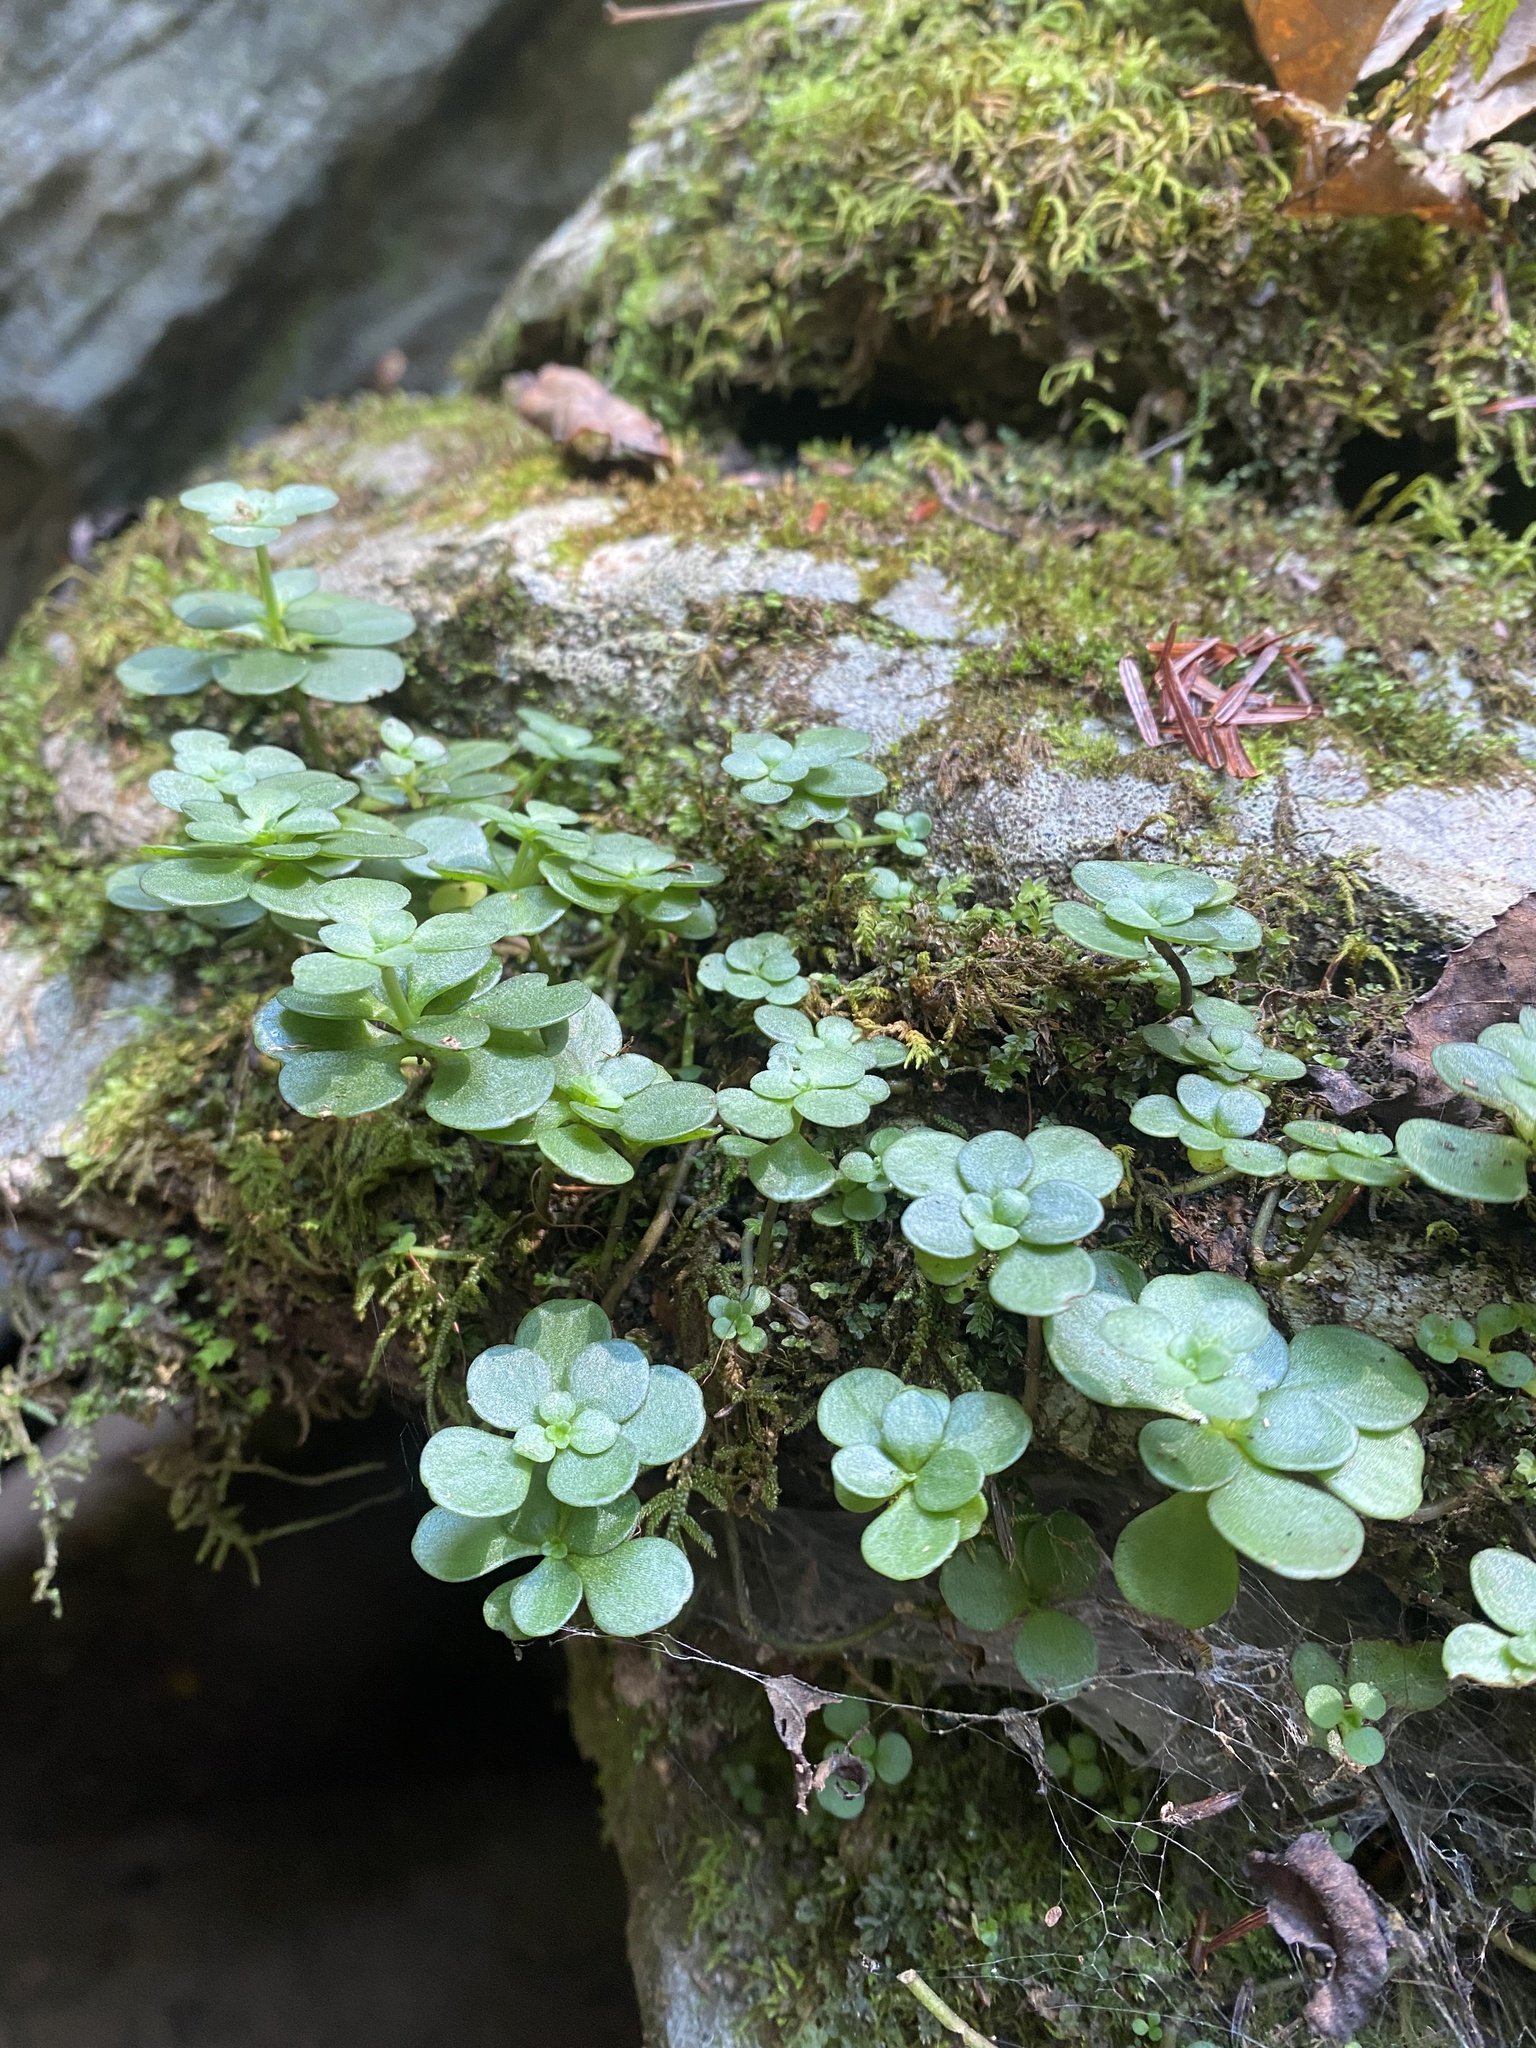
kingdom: Plantae
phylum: Tracheophyta
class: Magnoliopsida
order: Saxifragales
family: Crassulaceae
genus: Sedum
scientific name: Sedum ternatum
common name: Wild stonecrop
